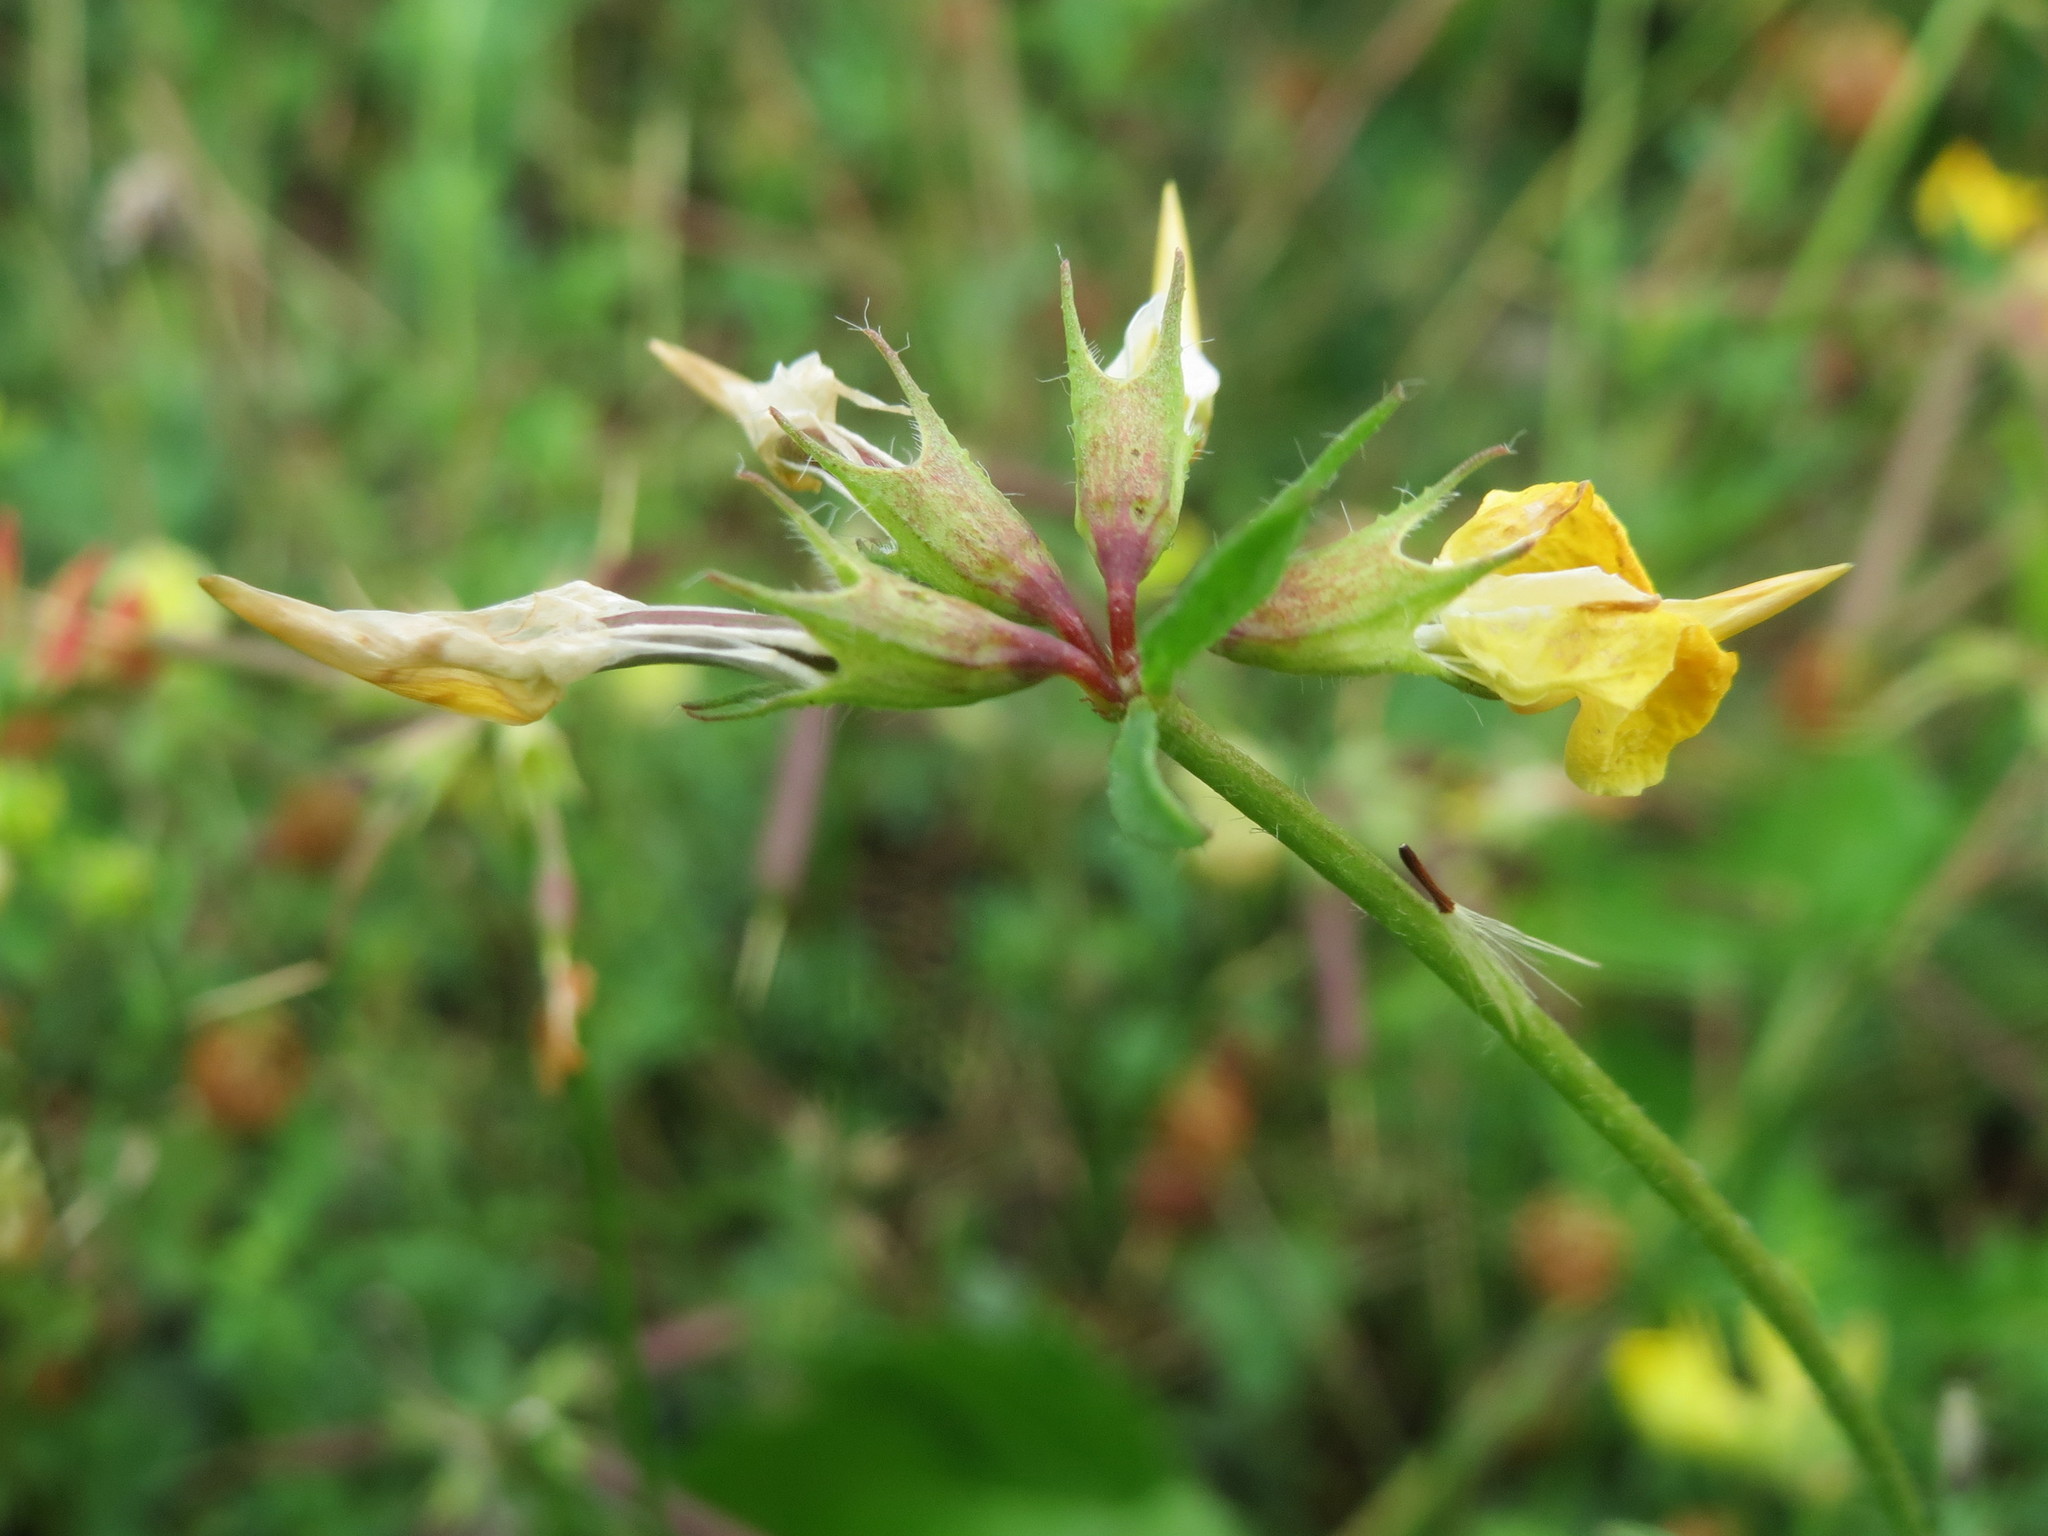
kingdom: Plantae
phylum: Tracheophyta
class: Magnoliopsida
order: Fabales
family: Fabaceae
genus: Lotus
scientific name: Lotus corniculatus
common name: Common bird's-foot-trefoil
